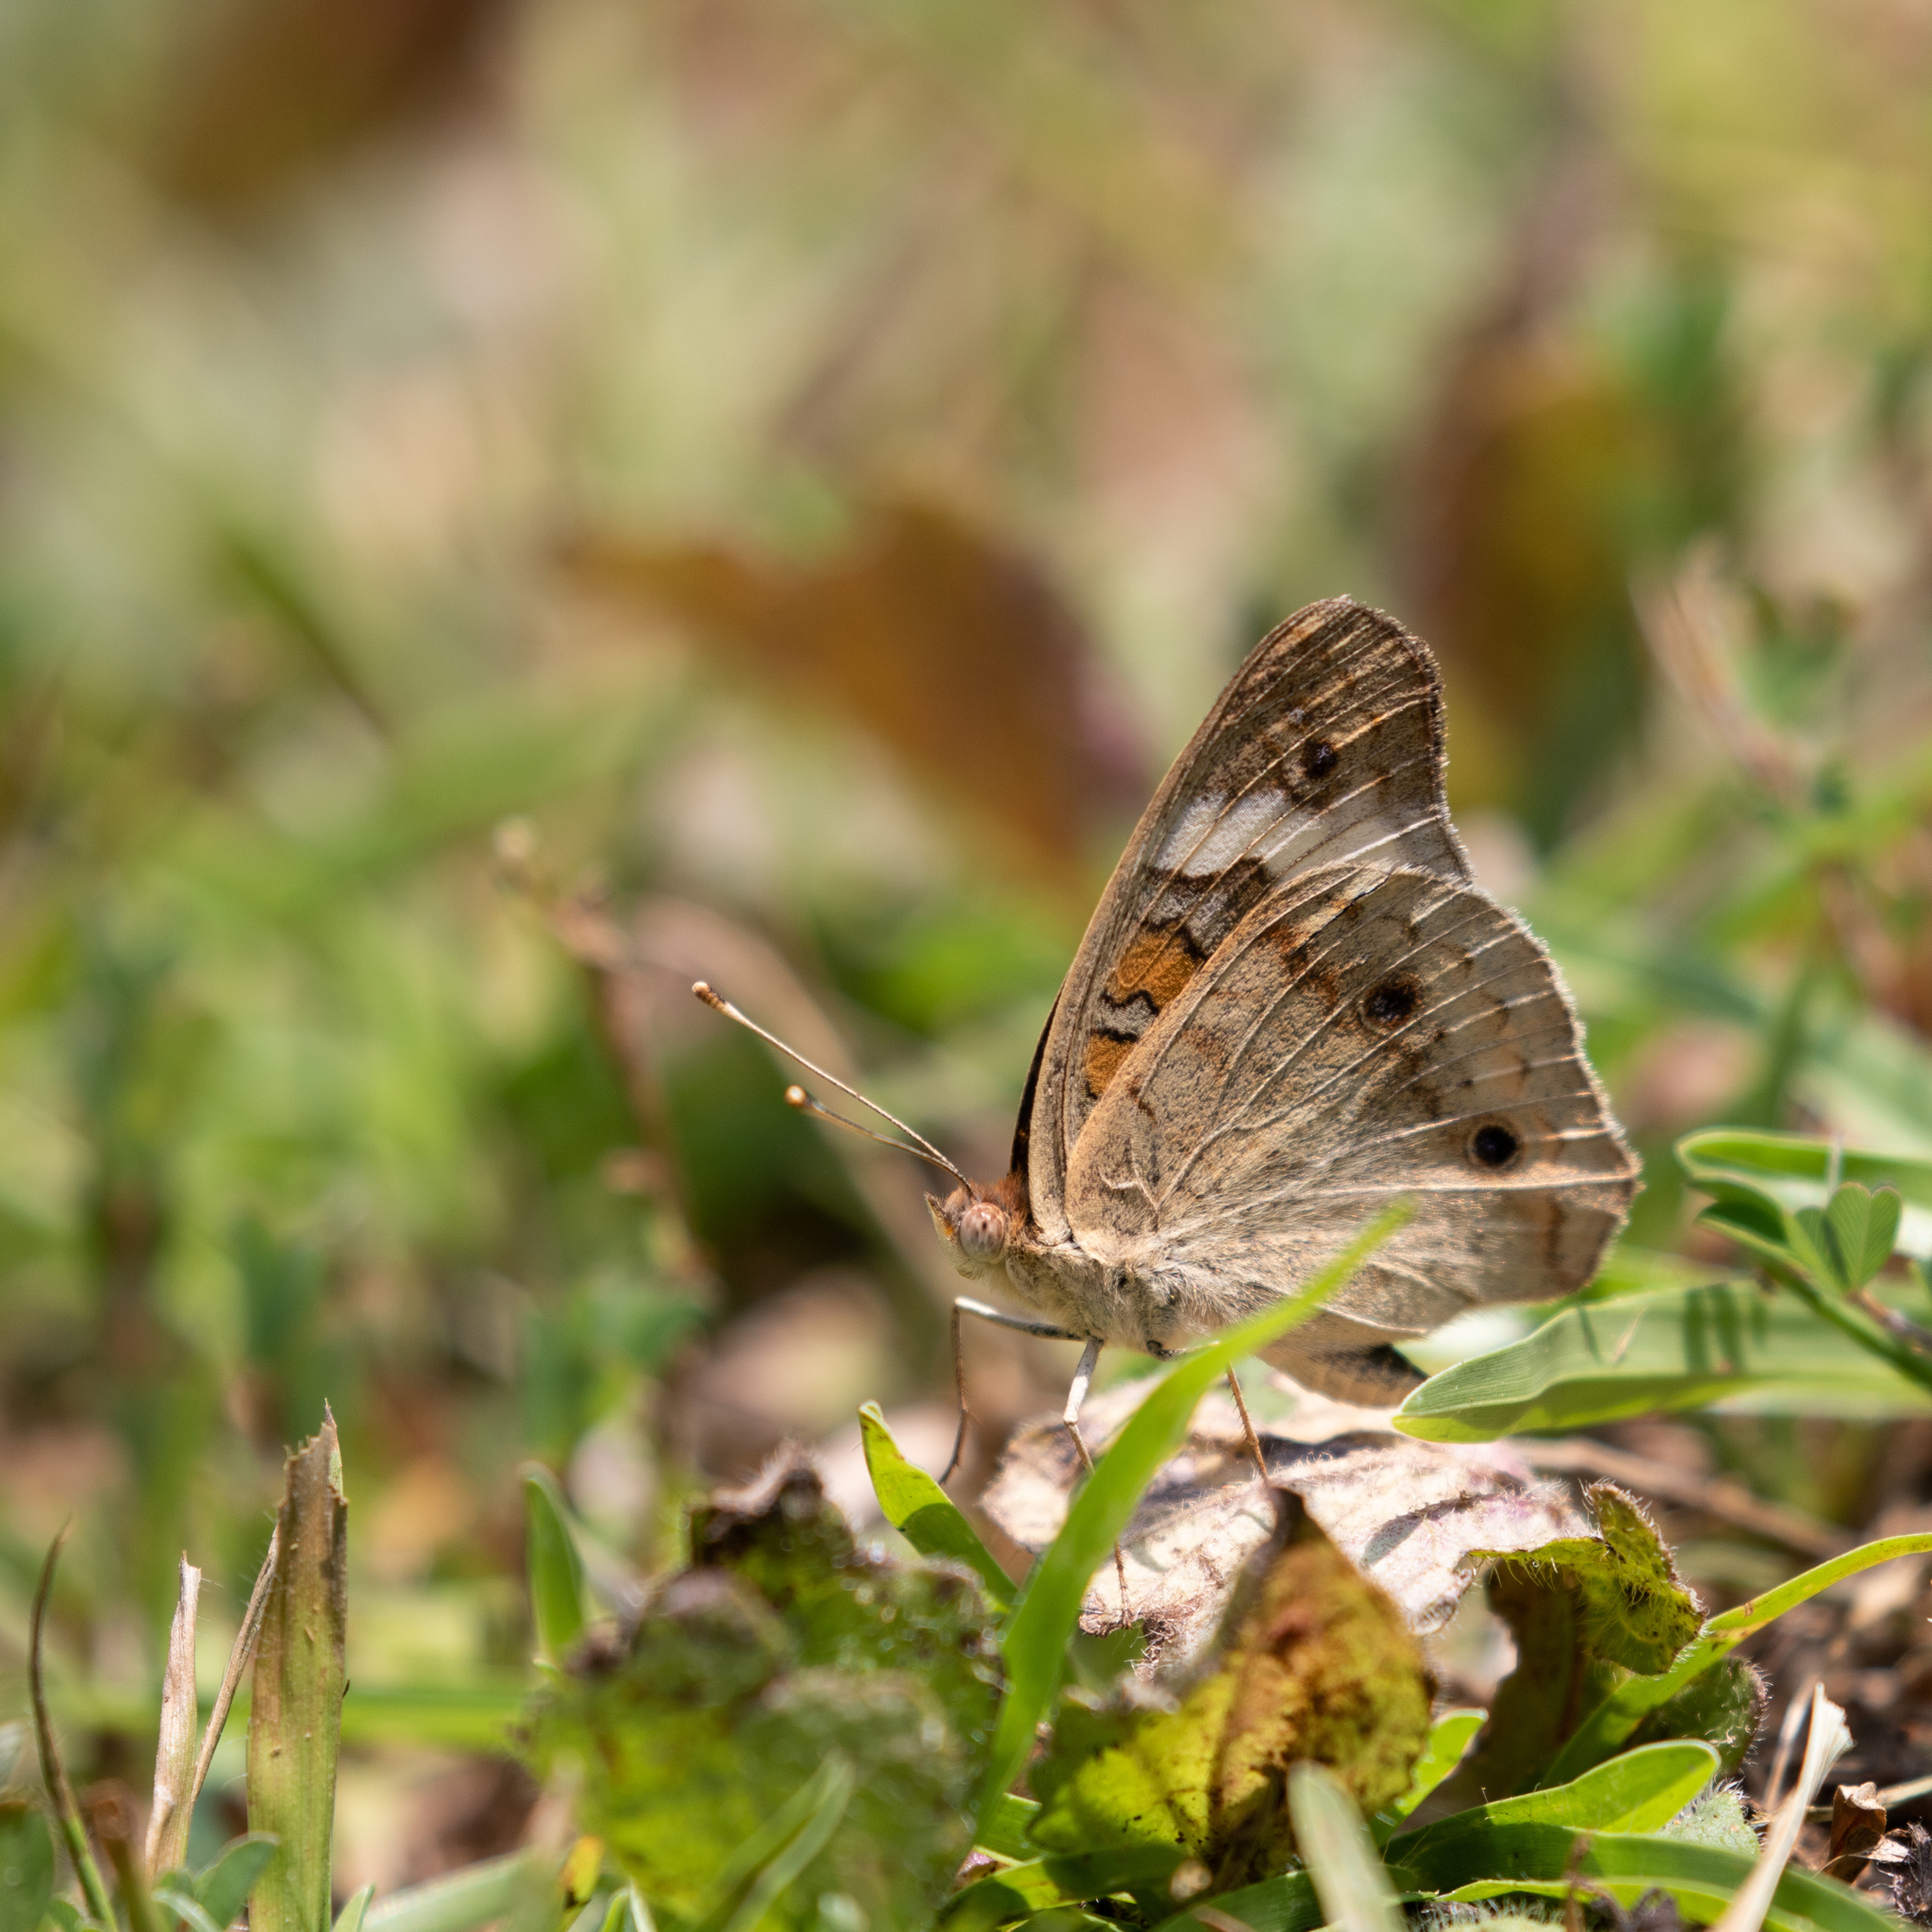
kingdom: Animalia
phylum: Arthropoda
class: Insecta
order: Lepidoptera
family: Nymphalidae
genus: Junonia
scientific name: Junonia coenia
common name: Common buckeye
